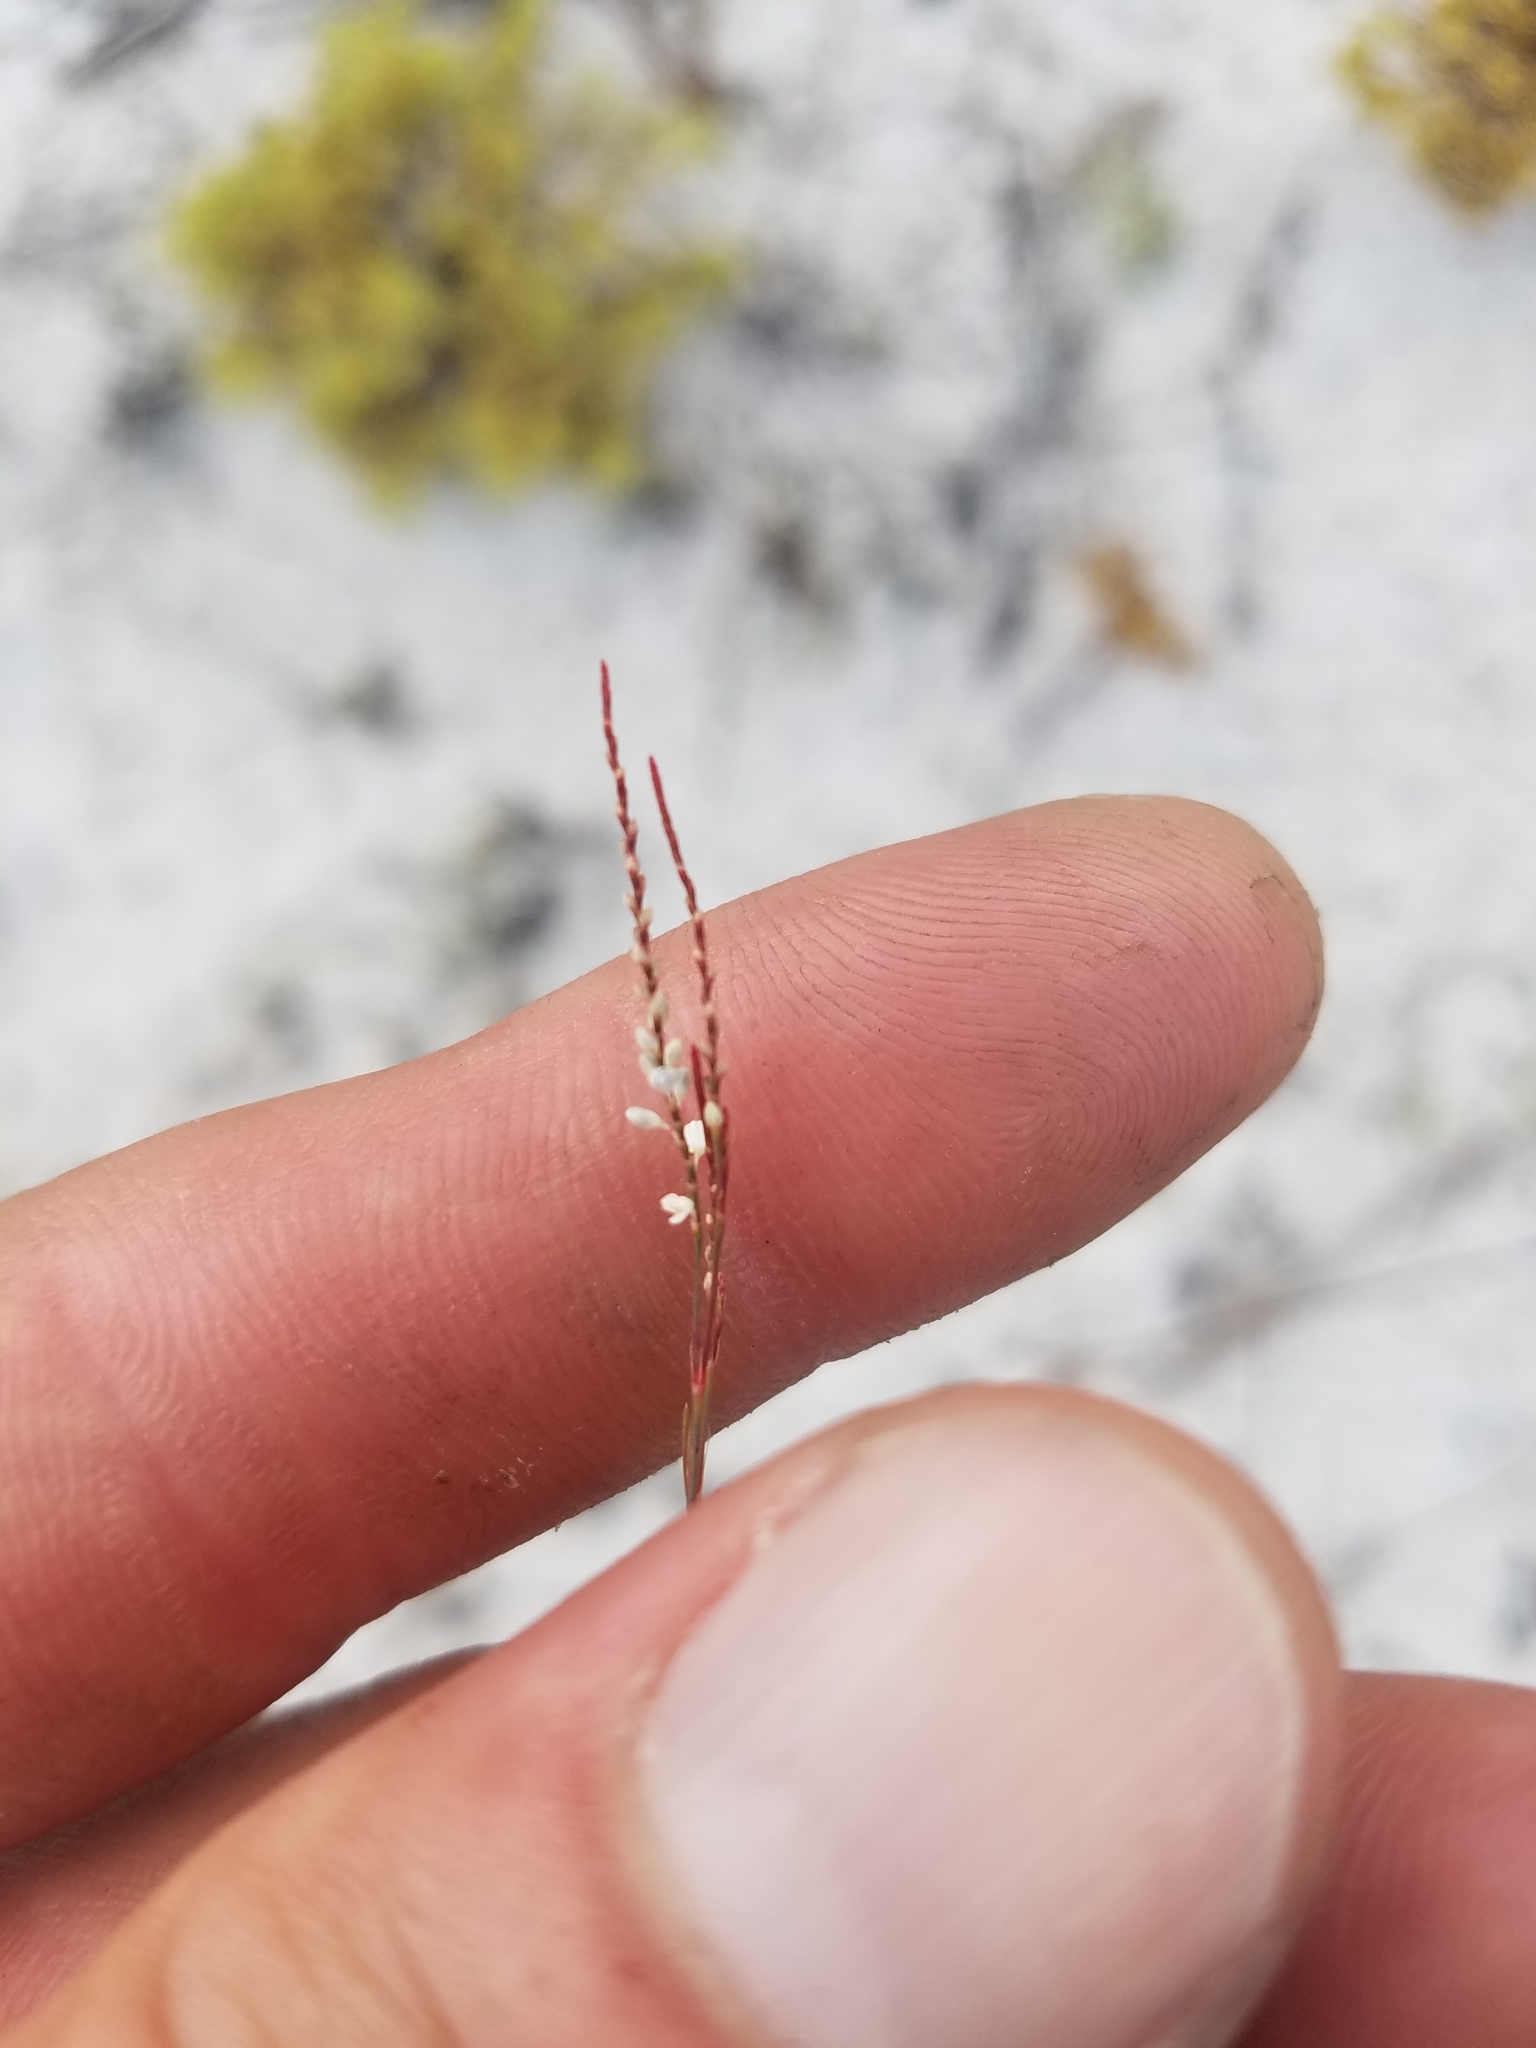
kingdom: Plantae
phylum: Tracheophyta
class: Magnoliopsida
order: Caryophyllales
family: Polygonaceae
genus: Polygonella
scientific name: Polygonella basiramia
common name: Hairy wireweed
